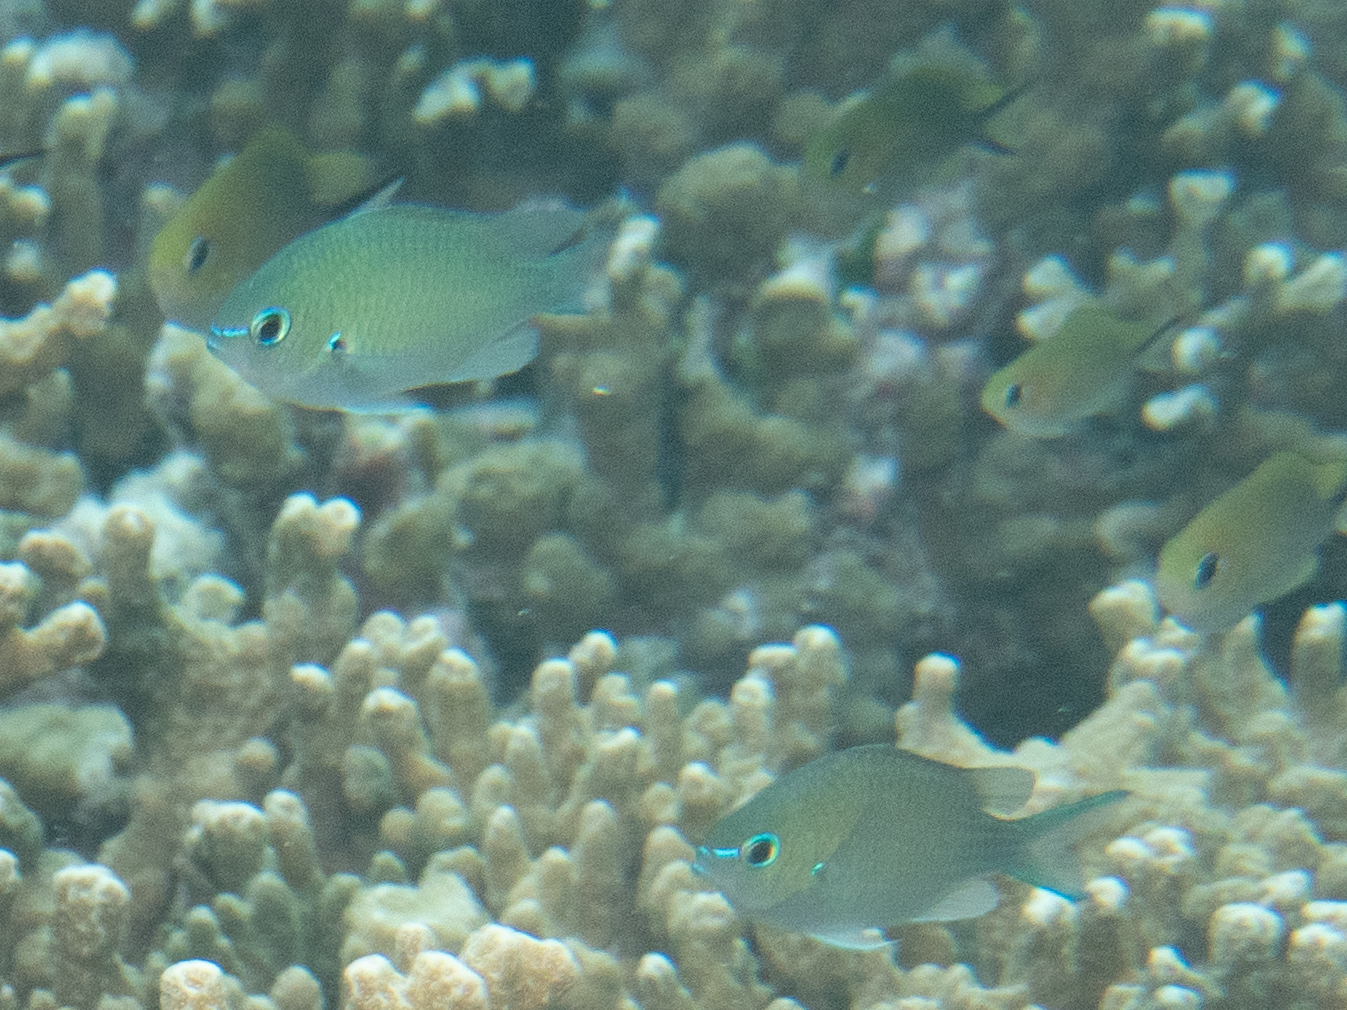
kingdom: Animalia
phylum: Chordata
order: Perciformes
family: Pomacentridae
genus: Chromis
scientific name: Chromis atripectoralis
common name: Black-axil chromis
